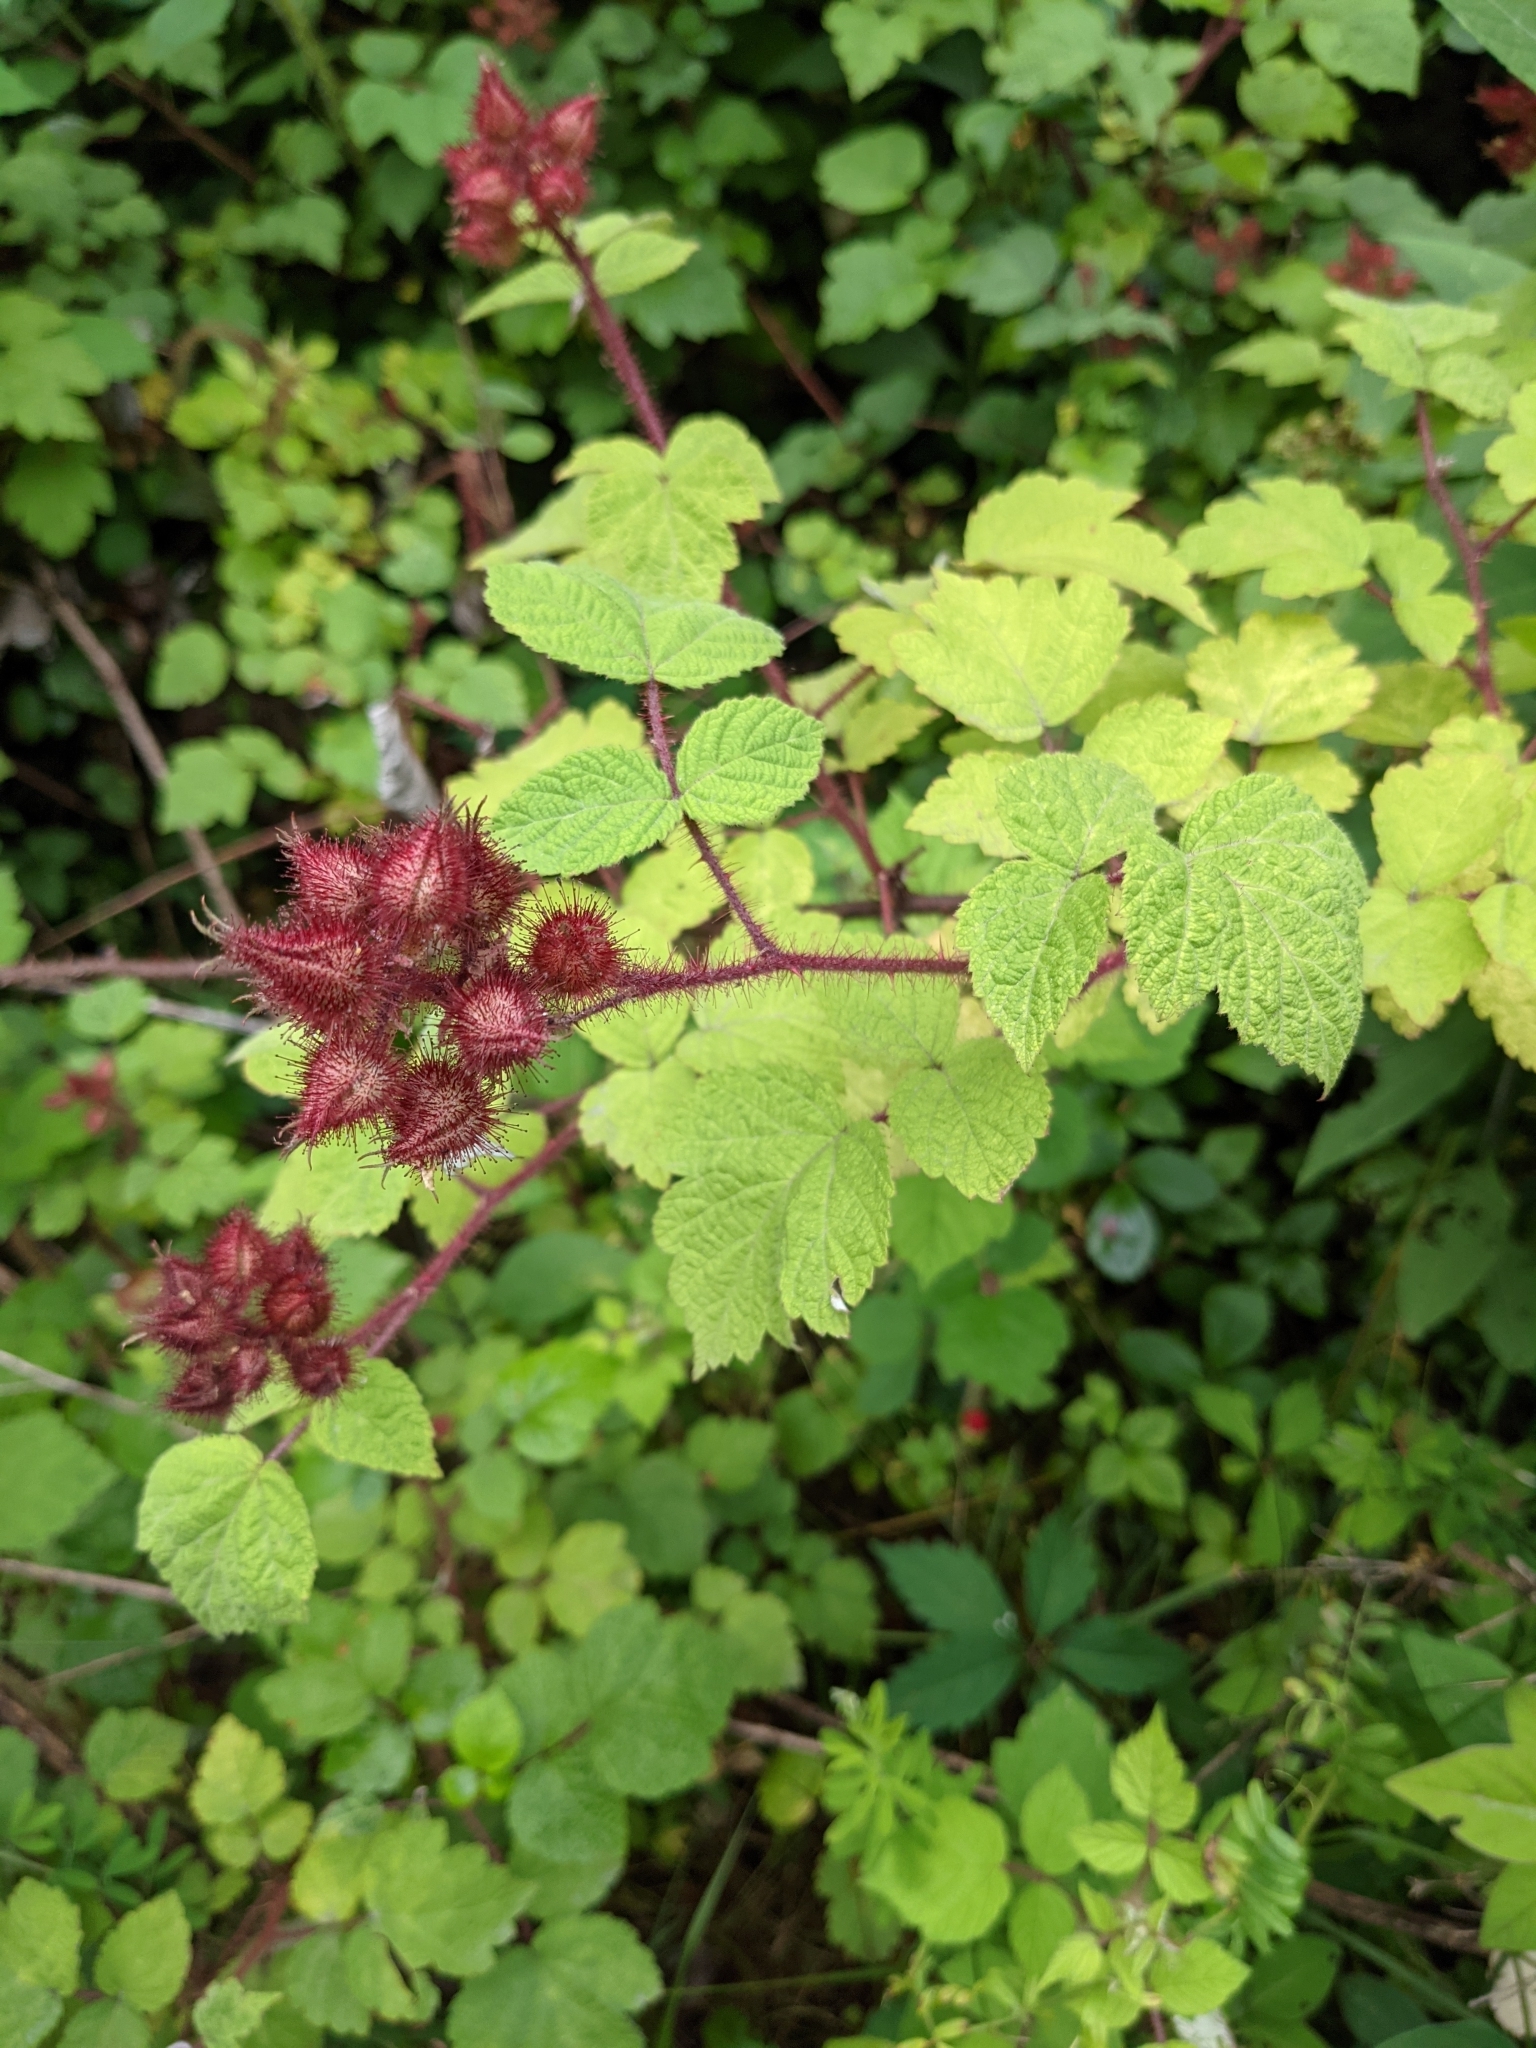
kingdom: Plantae
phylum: Tracheophyta
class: Magnoliopsida
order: Rosales
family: Rosaceae
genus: Rubus
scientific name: Rubus phoenicolasius
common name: Japanese wineberry
